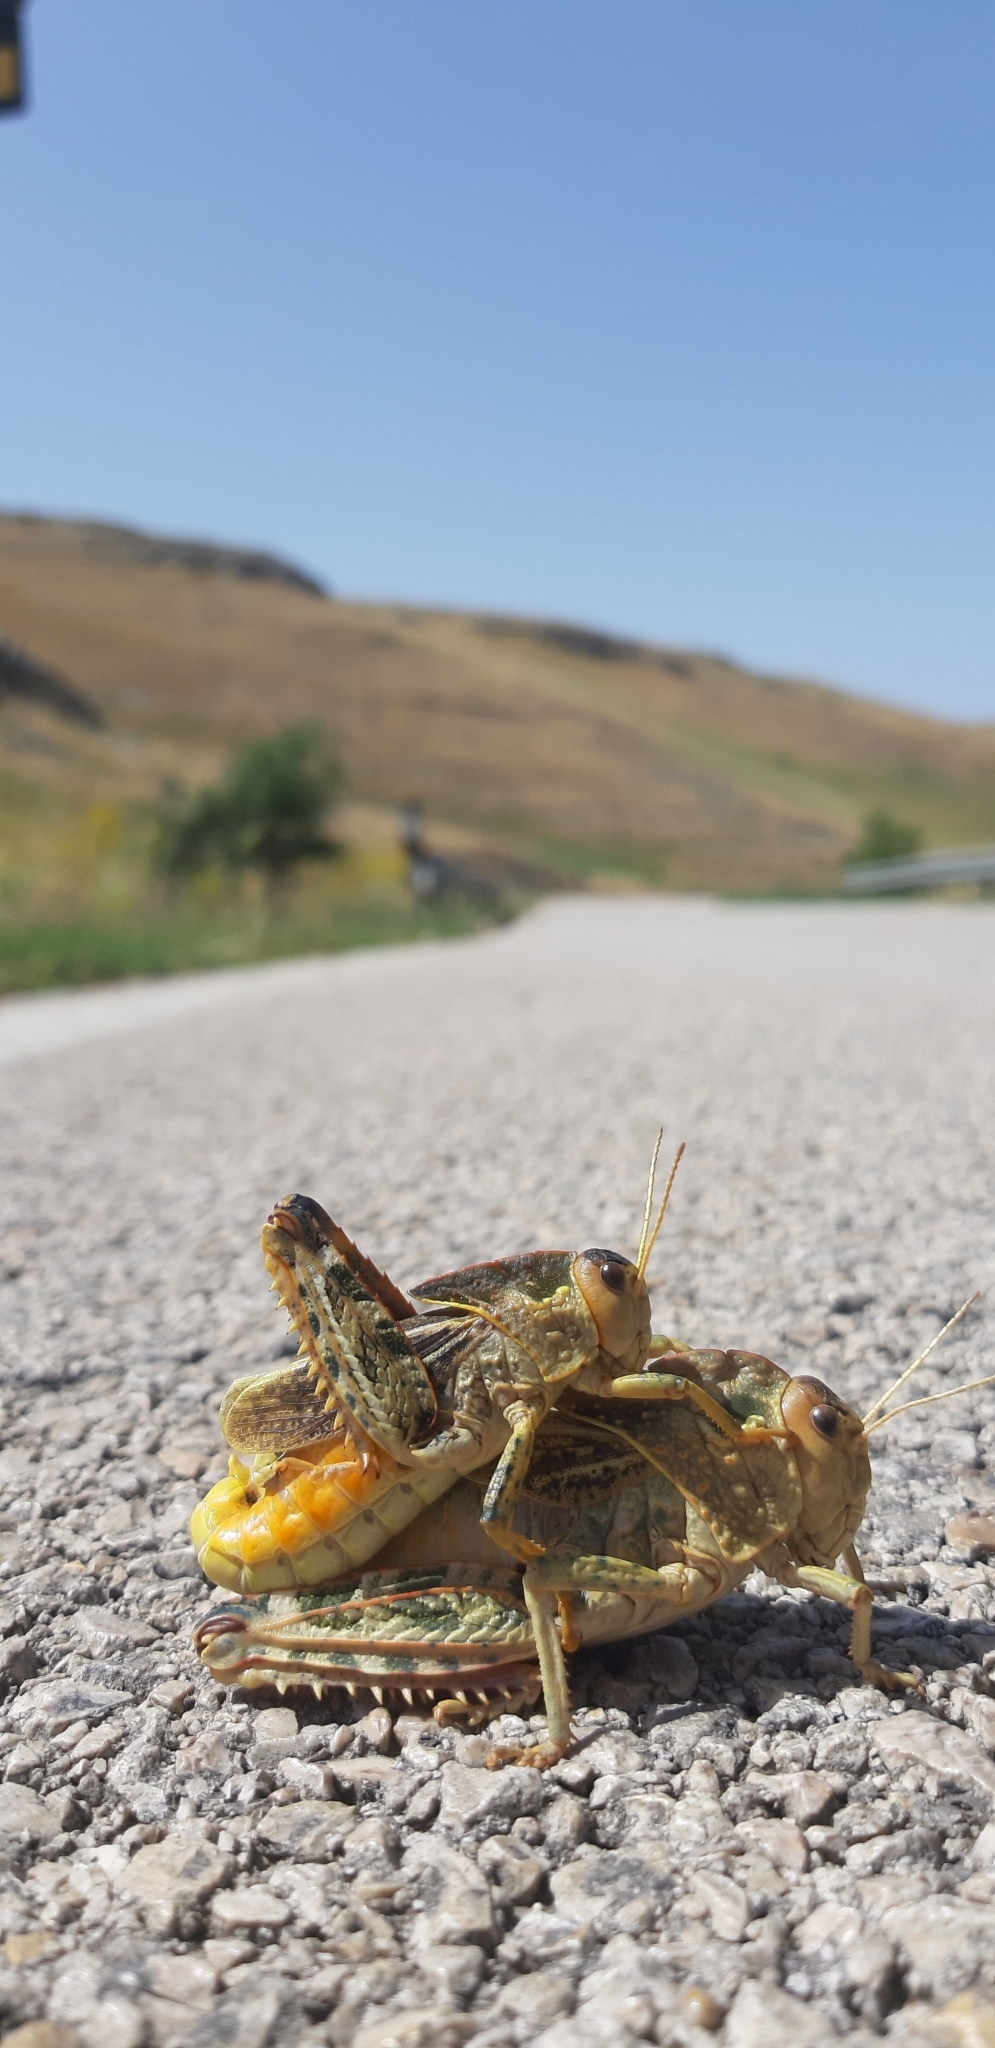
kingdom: Animalia
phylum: Arthropoda
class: Insecta
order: Orthoptera
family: Pamphagidae
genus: Prionotropis
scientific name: Prionotropis appula
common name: Apulian stone grasshopper
